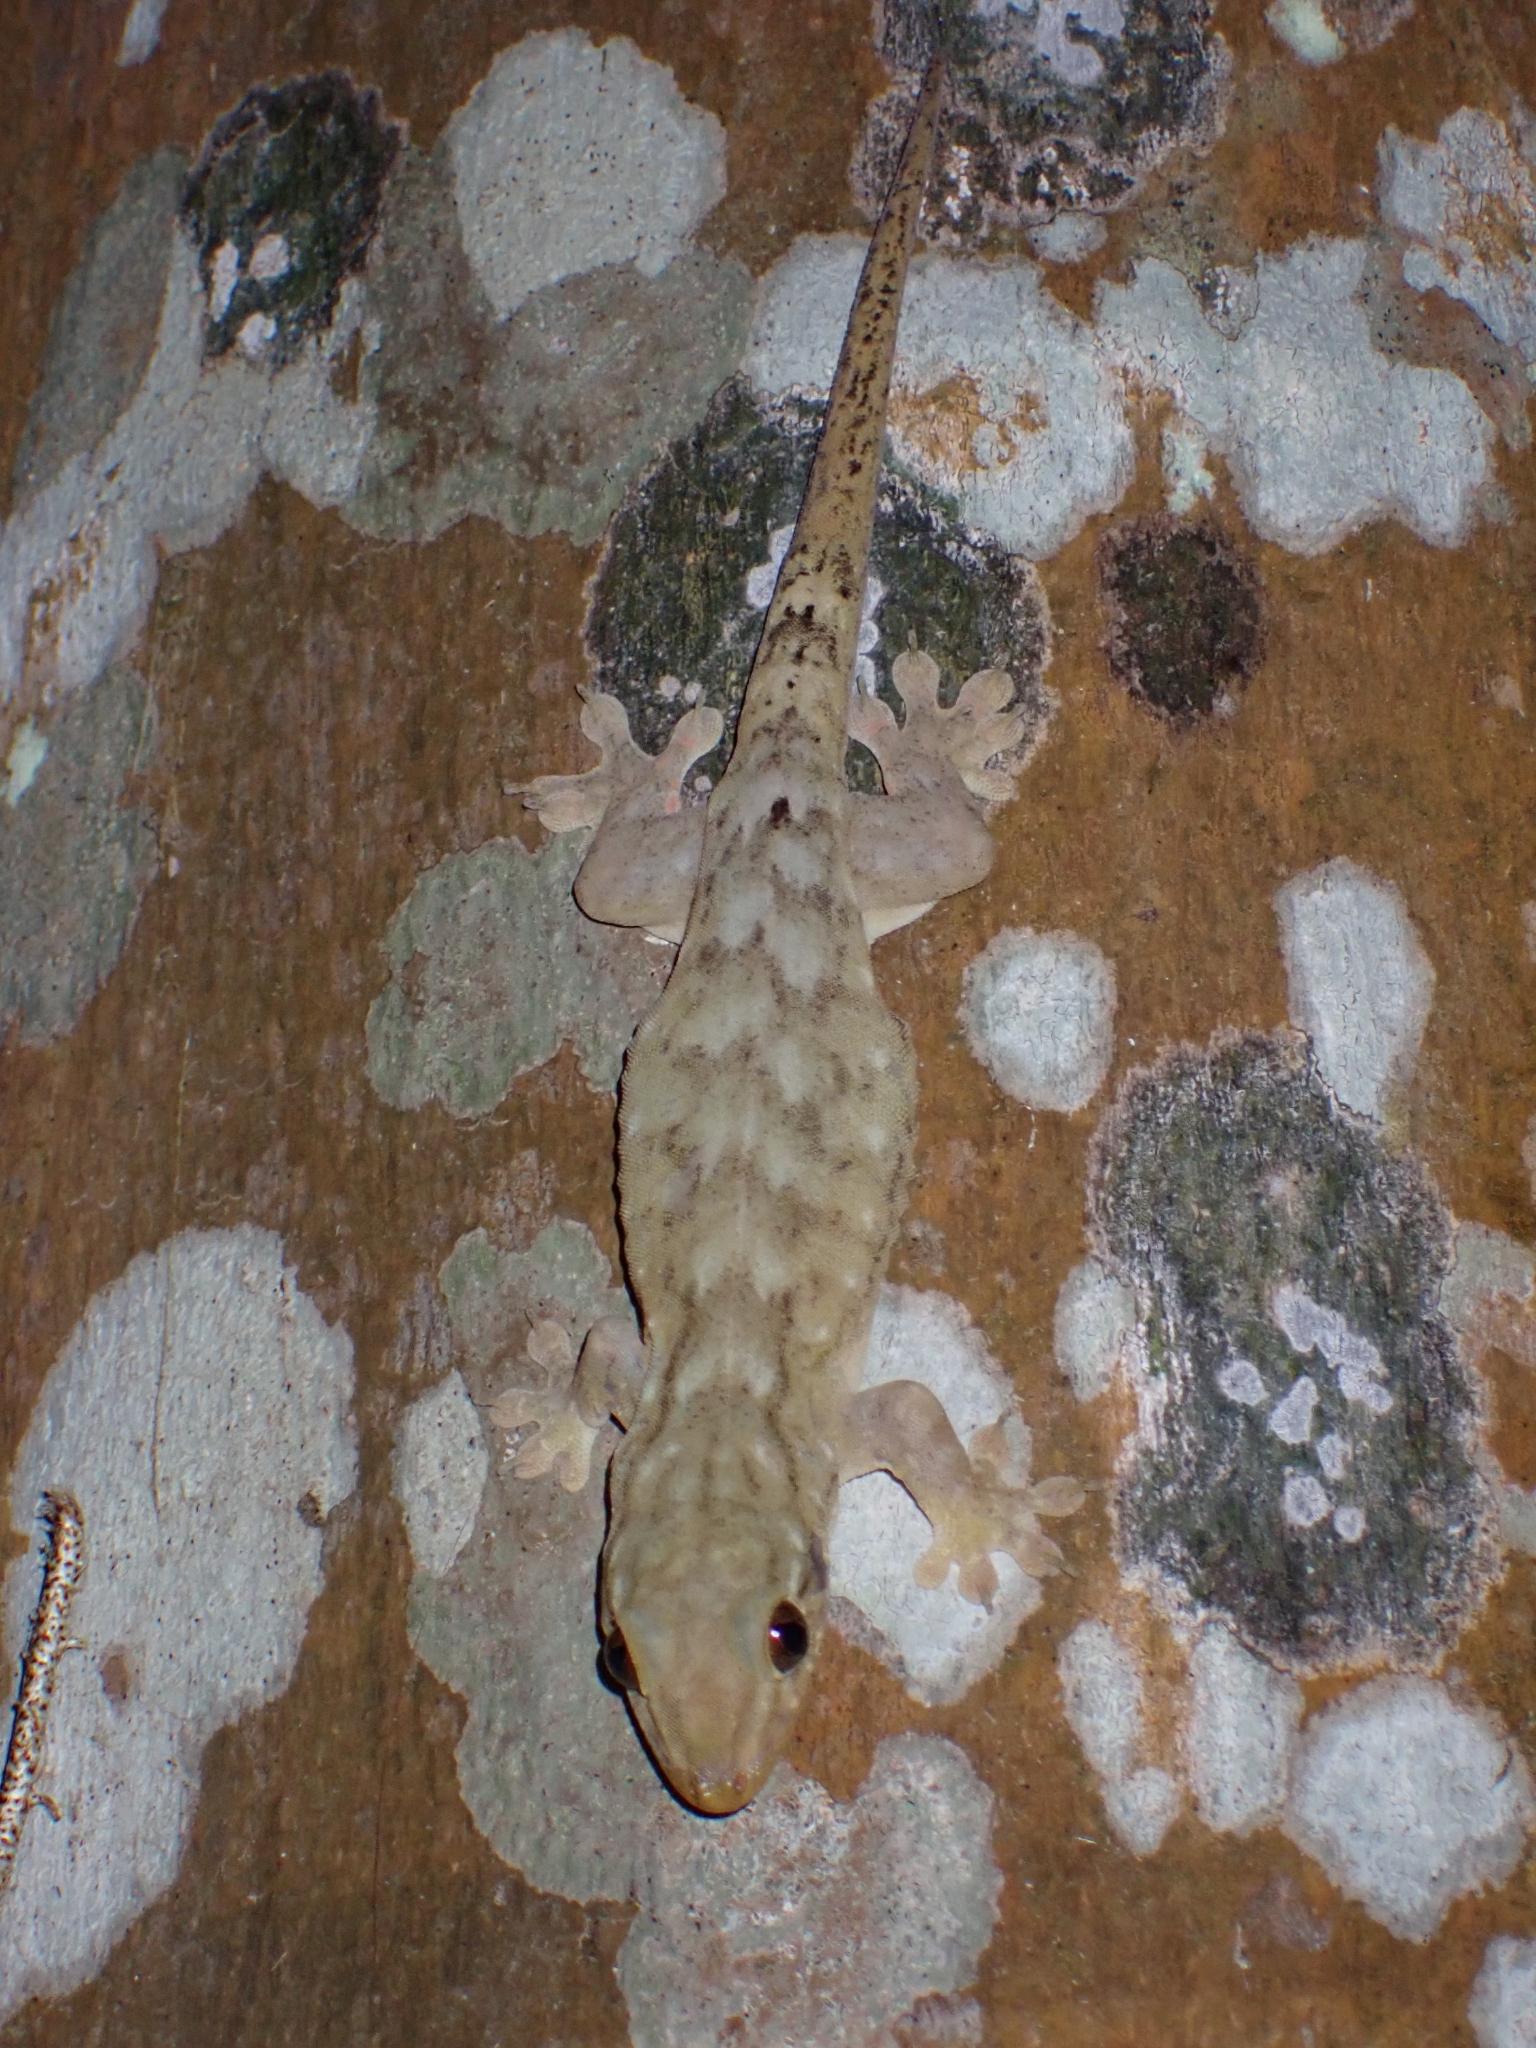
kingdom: Animalia
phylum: Chordata
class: Squamata
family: Gekkonidae
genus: Gehyra
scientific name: Gehyra oceanica
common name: Pacific dtella
